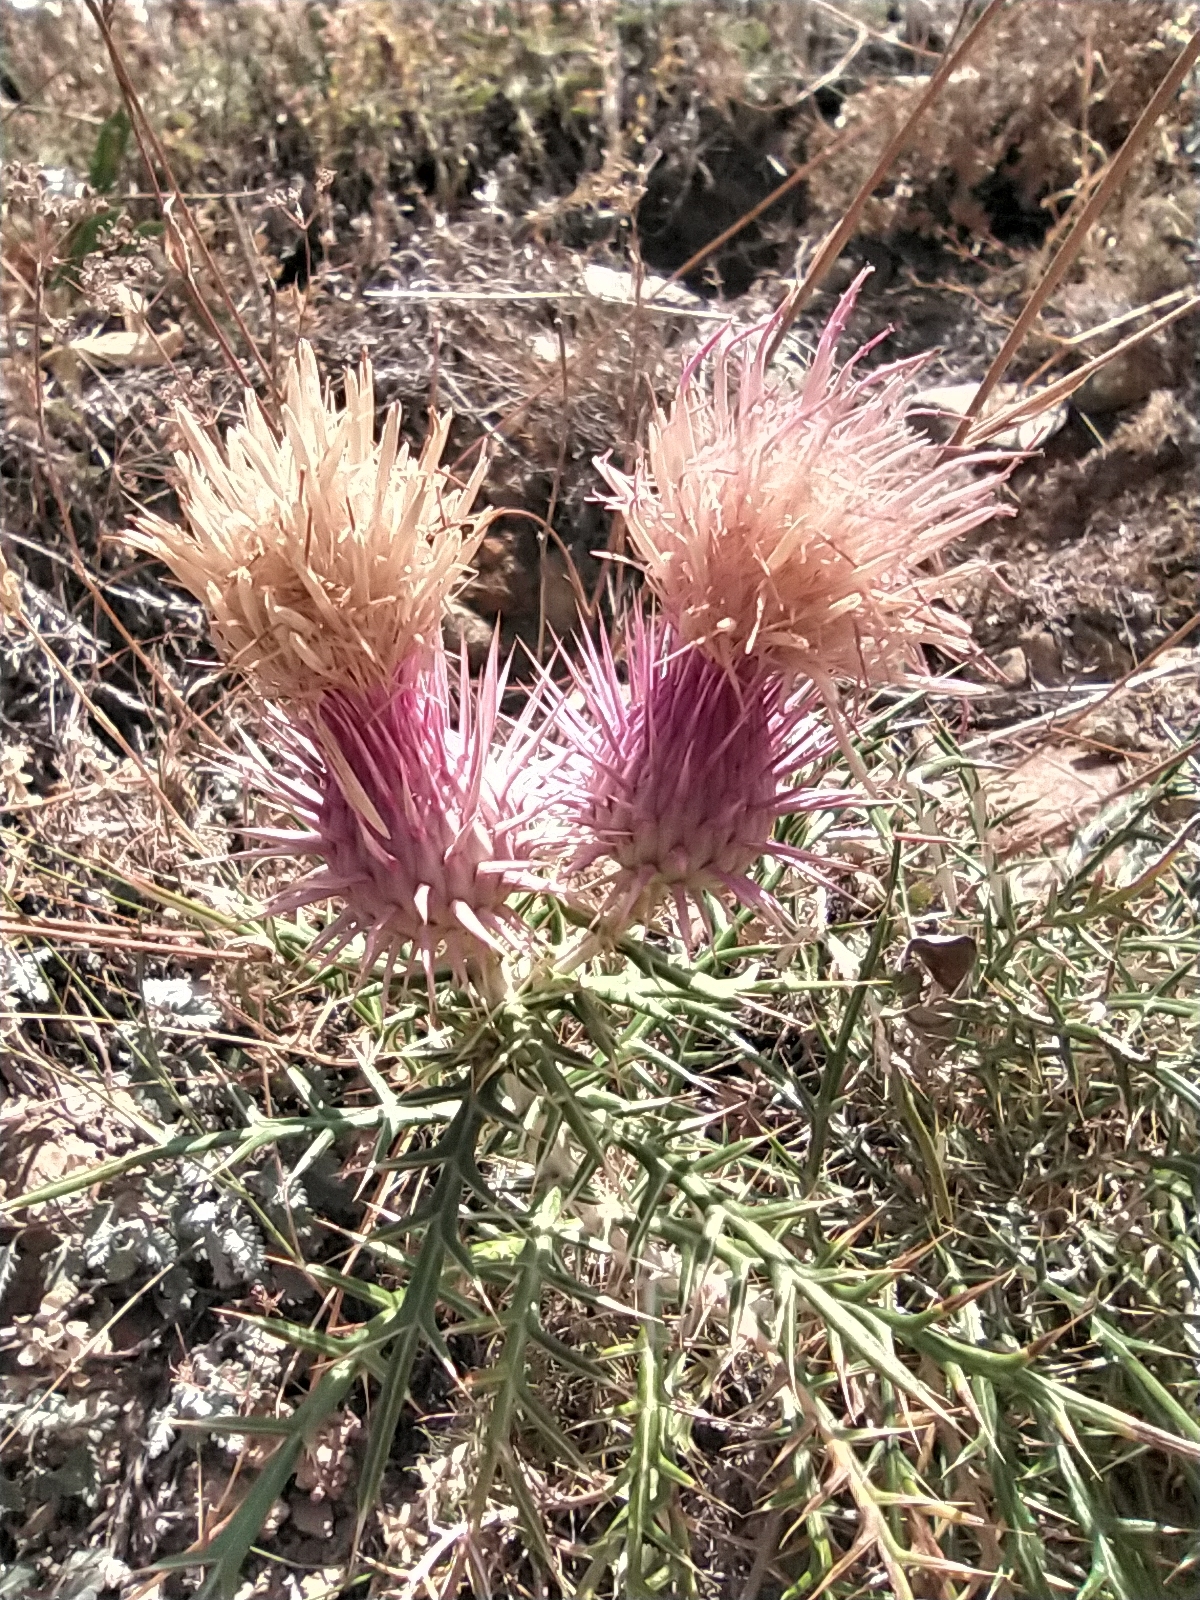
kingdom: Plantae
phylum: Tracheophyta
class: Magnoliopsida
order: Asterales
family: Asteraceae
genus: Ptilostemon
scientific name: Ptilostemon echinocephalus
